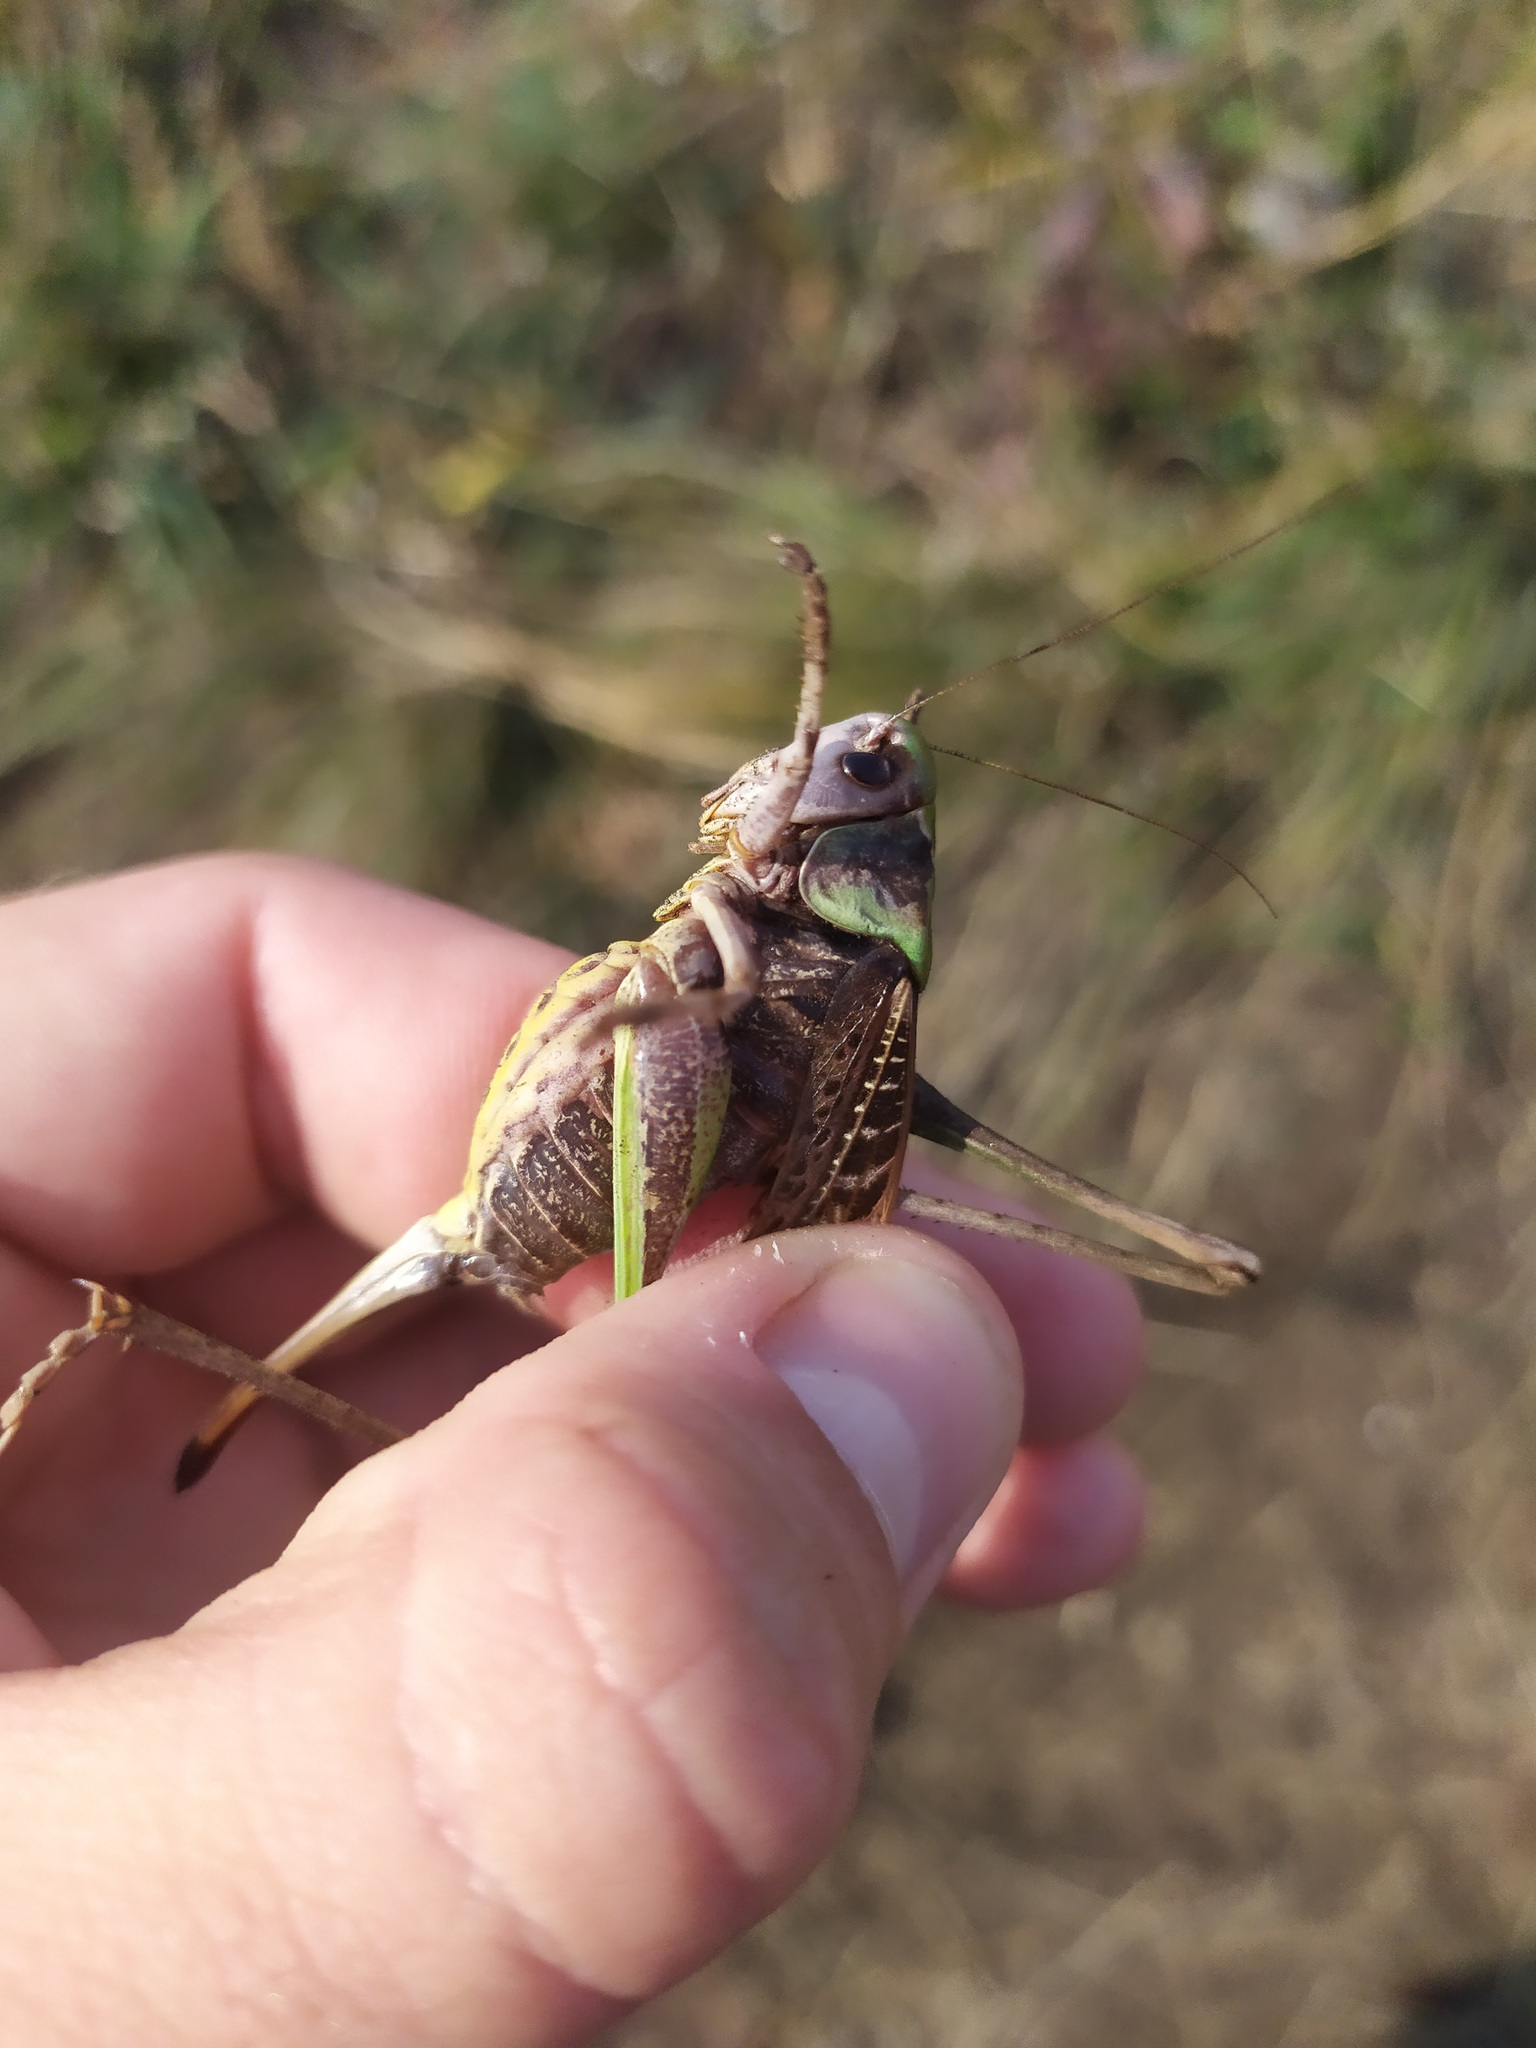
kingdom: Animalia
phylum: Arthropoda
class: Insecta
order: Orthoptera
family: Tettigoniidae
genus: Decticus
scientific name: Decticus verrucivorus
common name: Wart-biter
